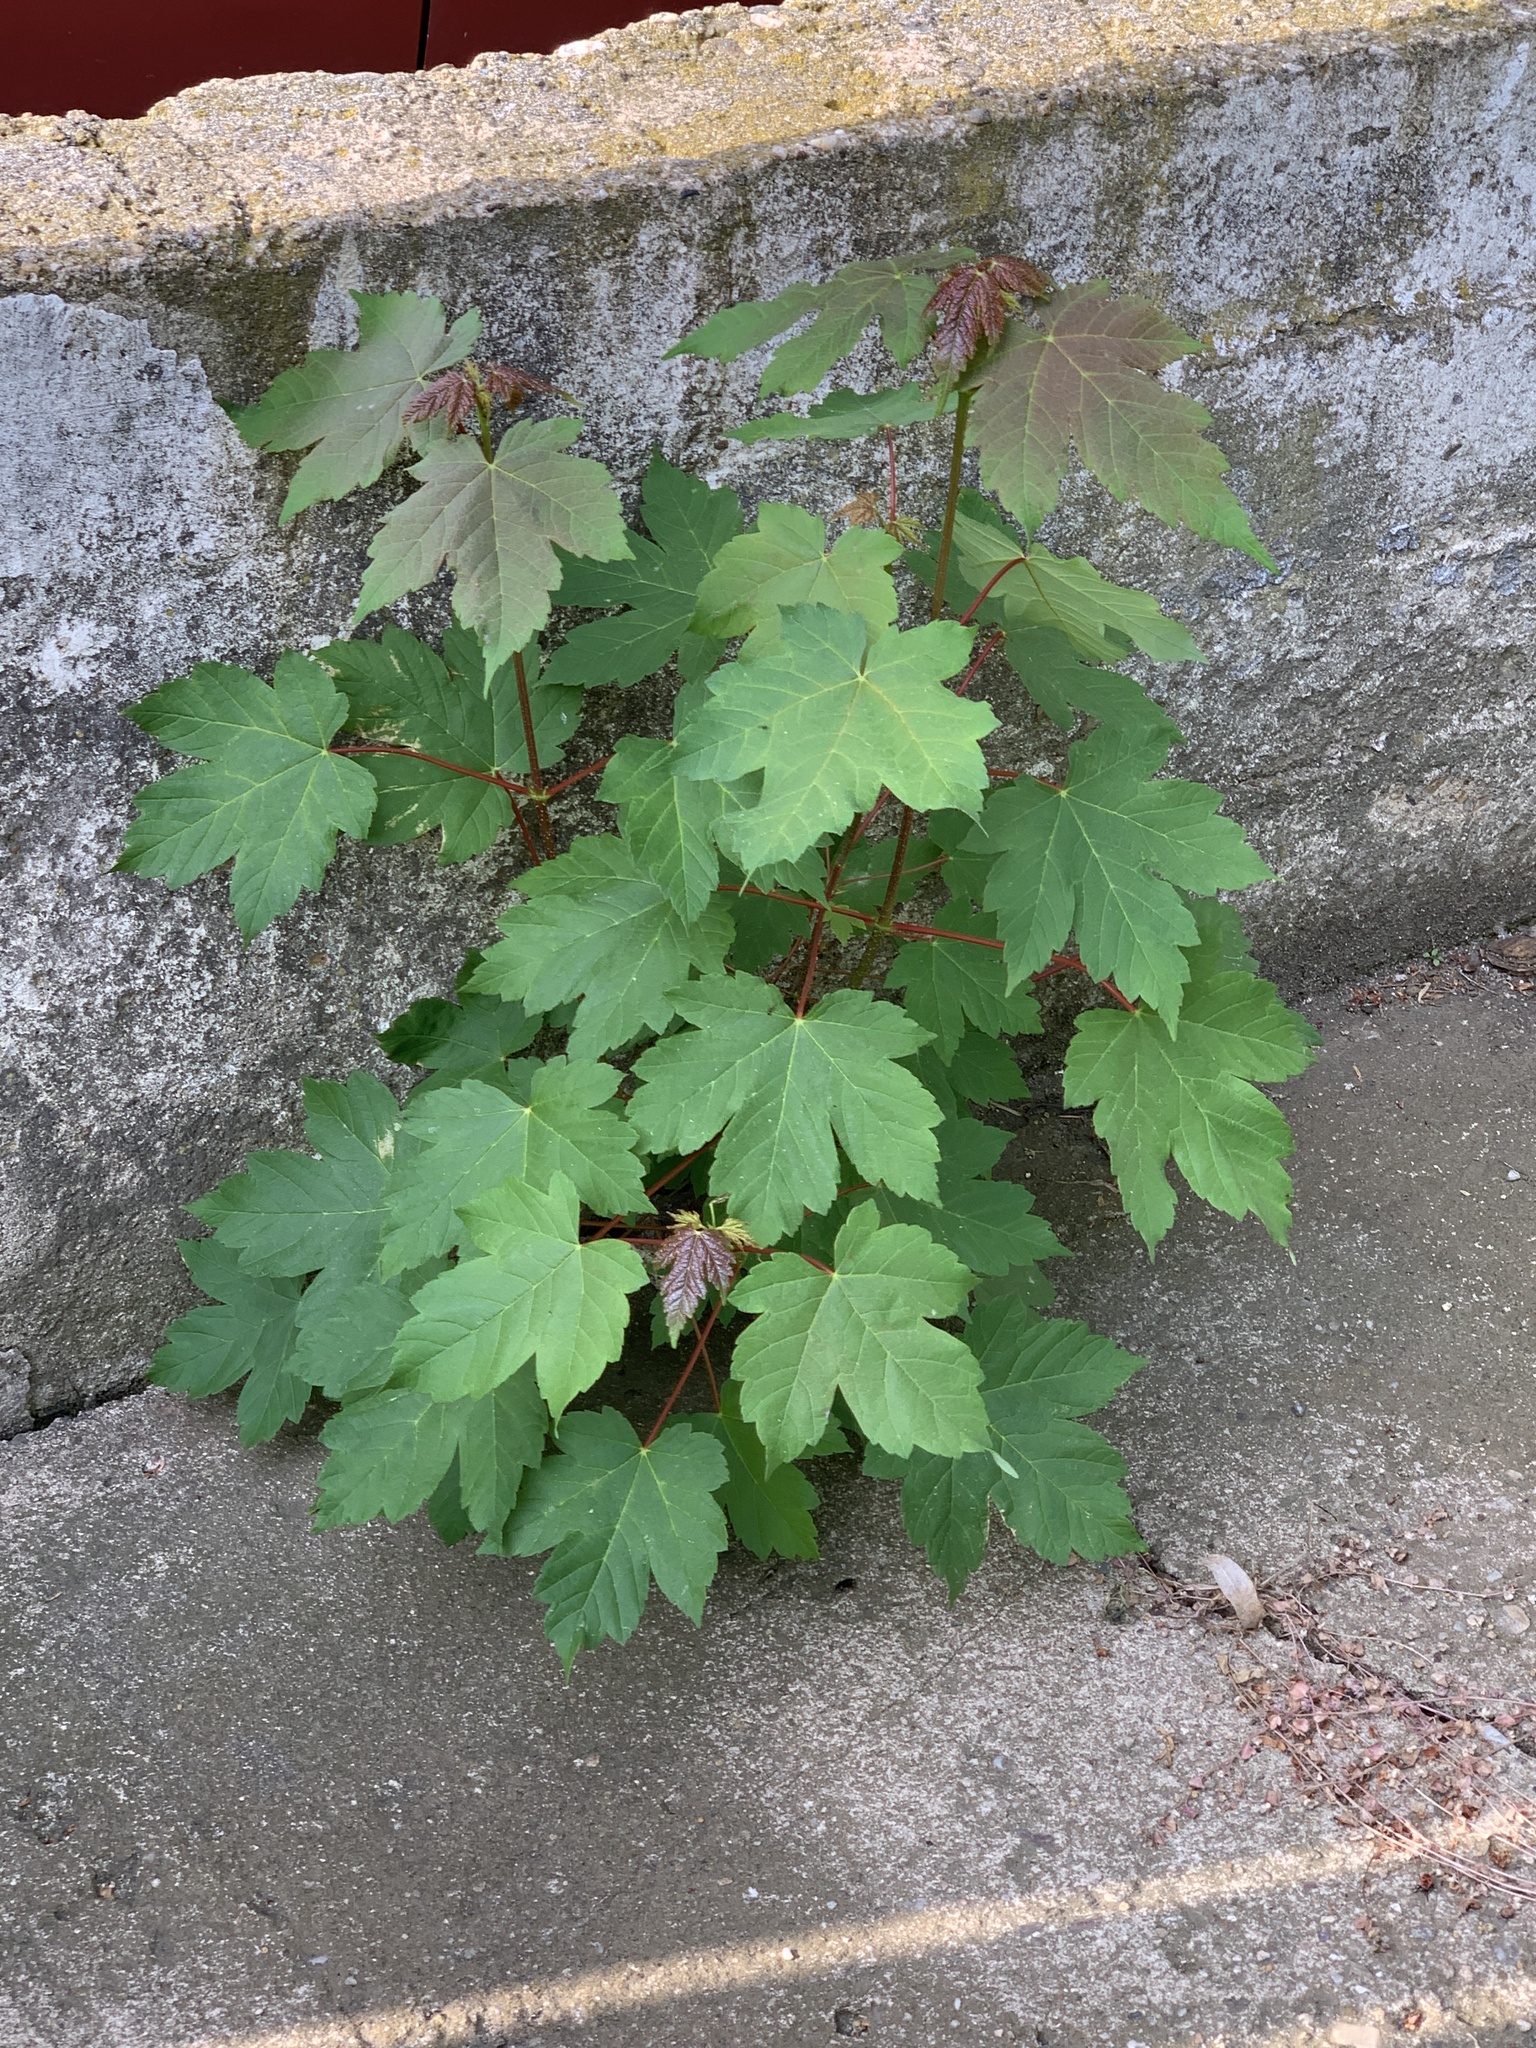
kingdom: Plantae
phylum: Tracheophyta
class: Magnoliopsida
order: Sapindales
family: Sapindaceae
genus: Acer
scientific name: Acer pseudoplatanus
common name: Sycamore
